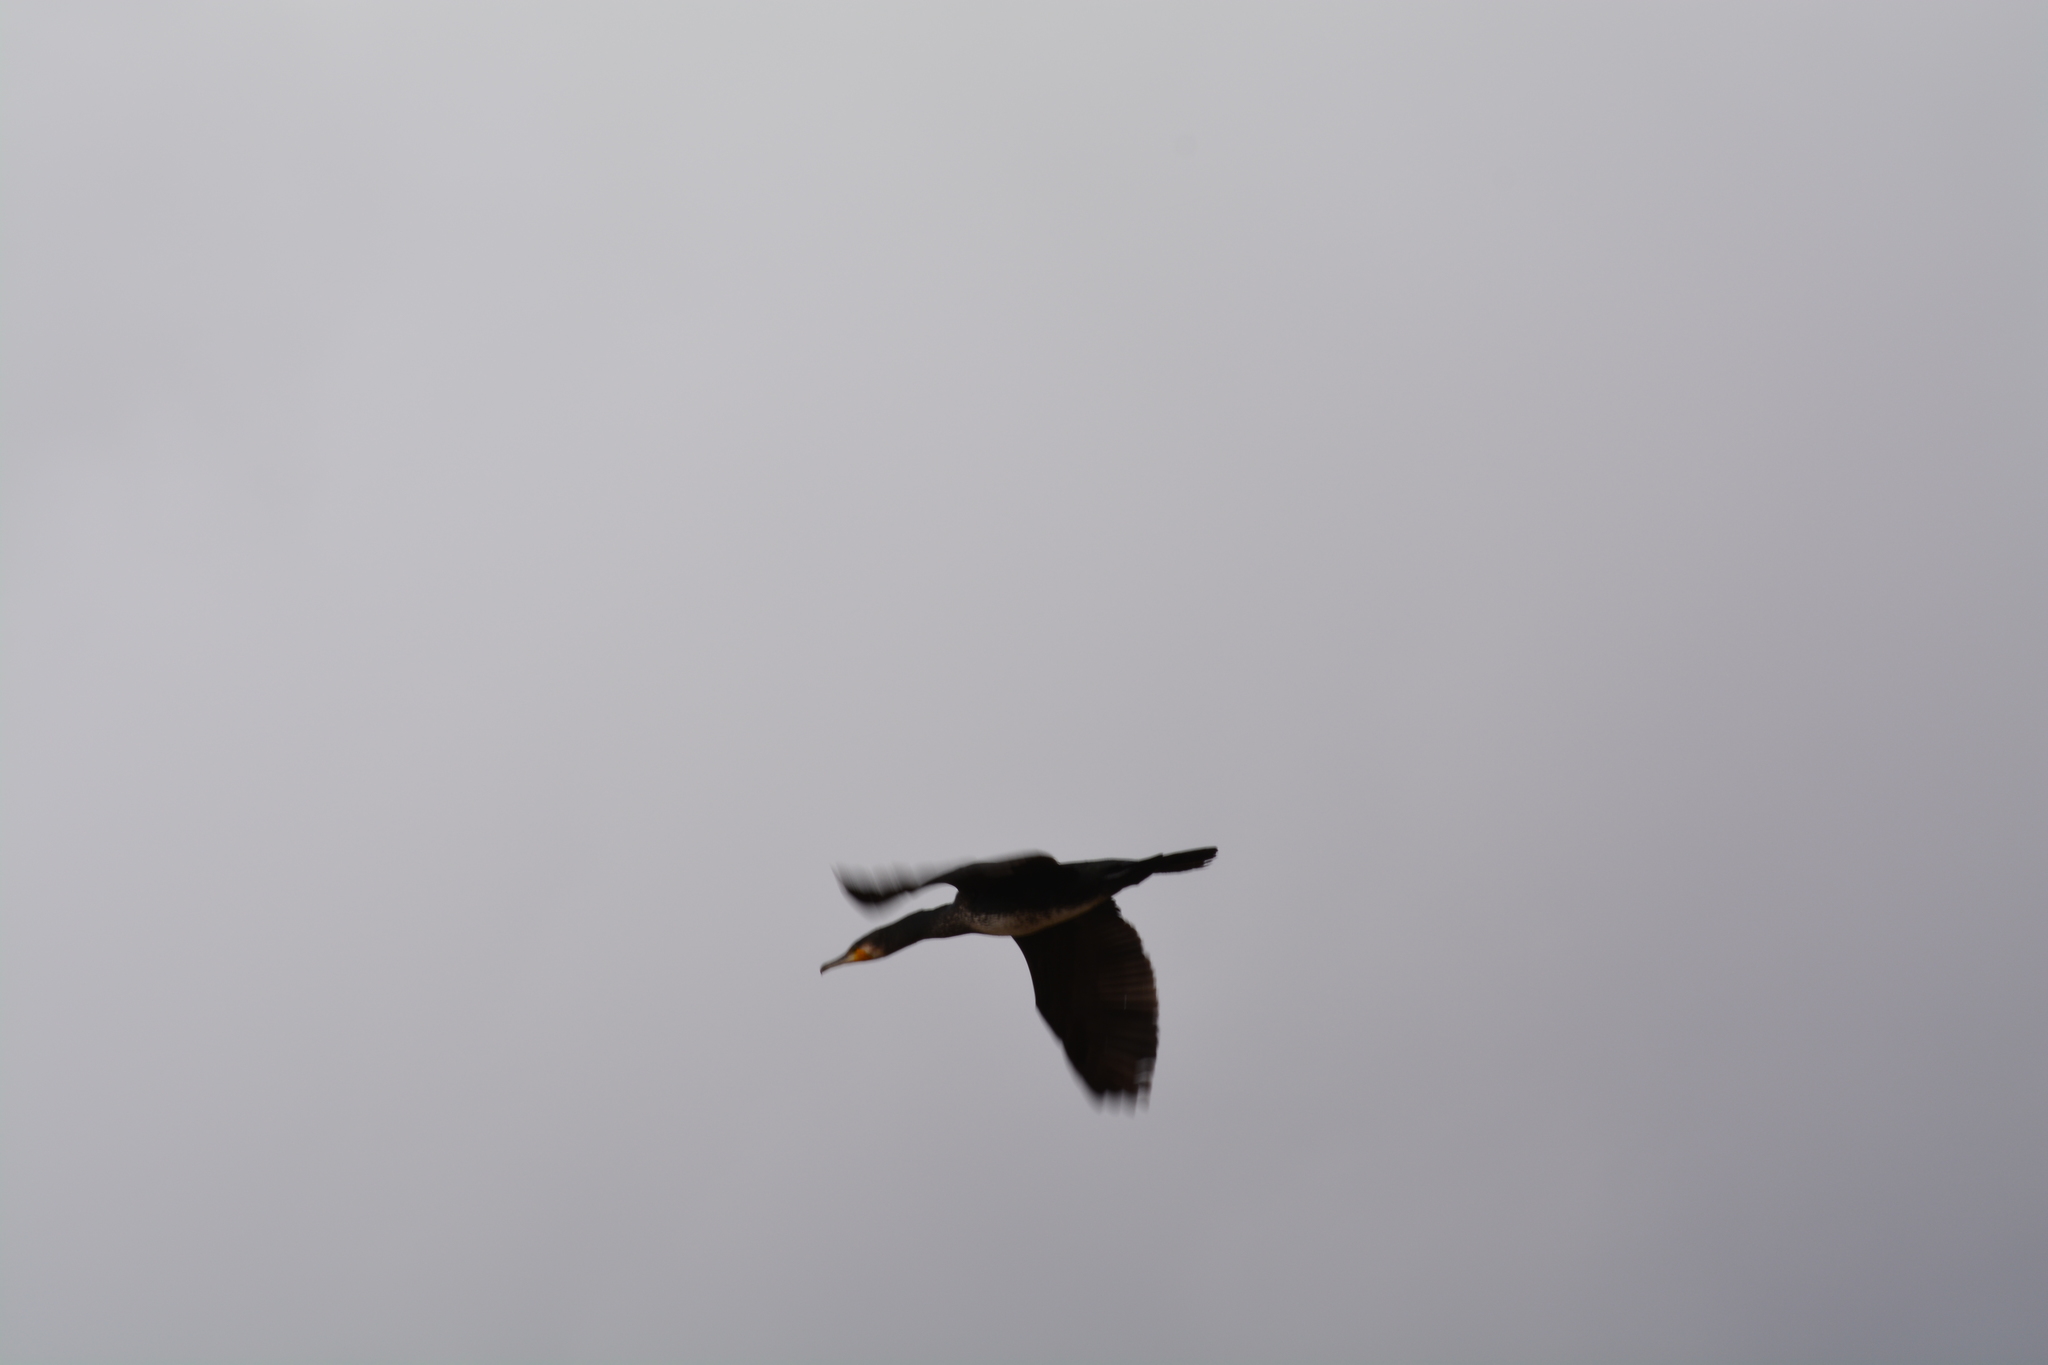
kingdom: Animalia
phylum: Chordata
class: Aves
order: Suliformes
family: Phalacrocoracidae
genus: Phalacrocorax
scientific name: Phalacrocorax carbo
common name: Great cormorant
